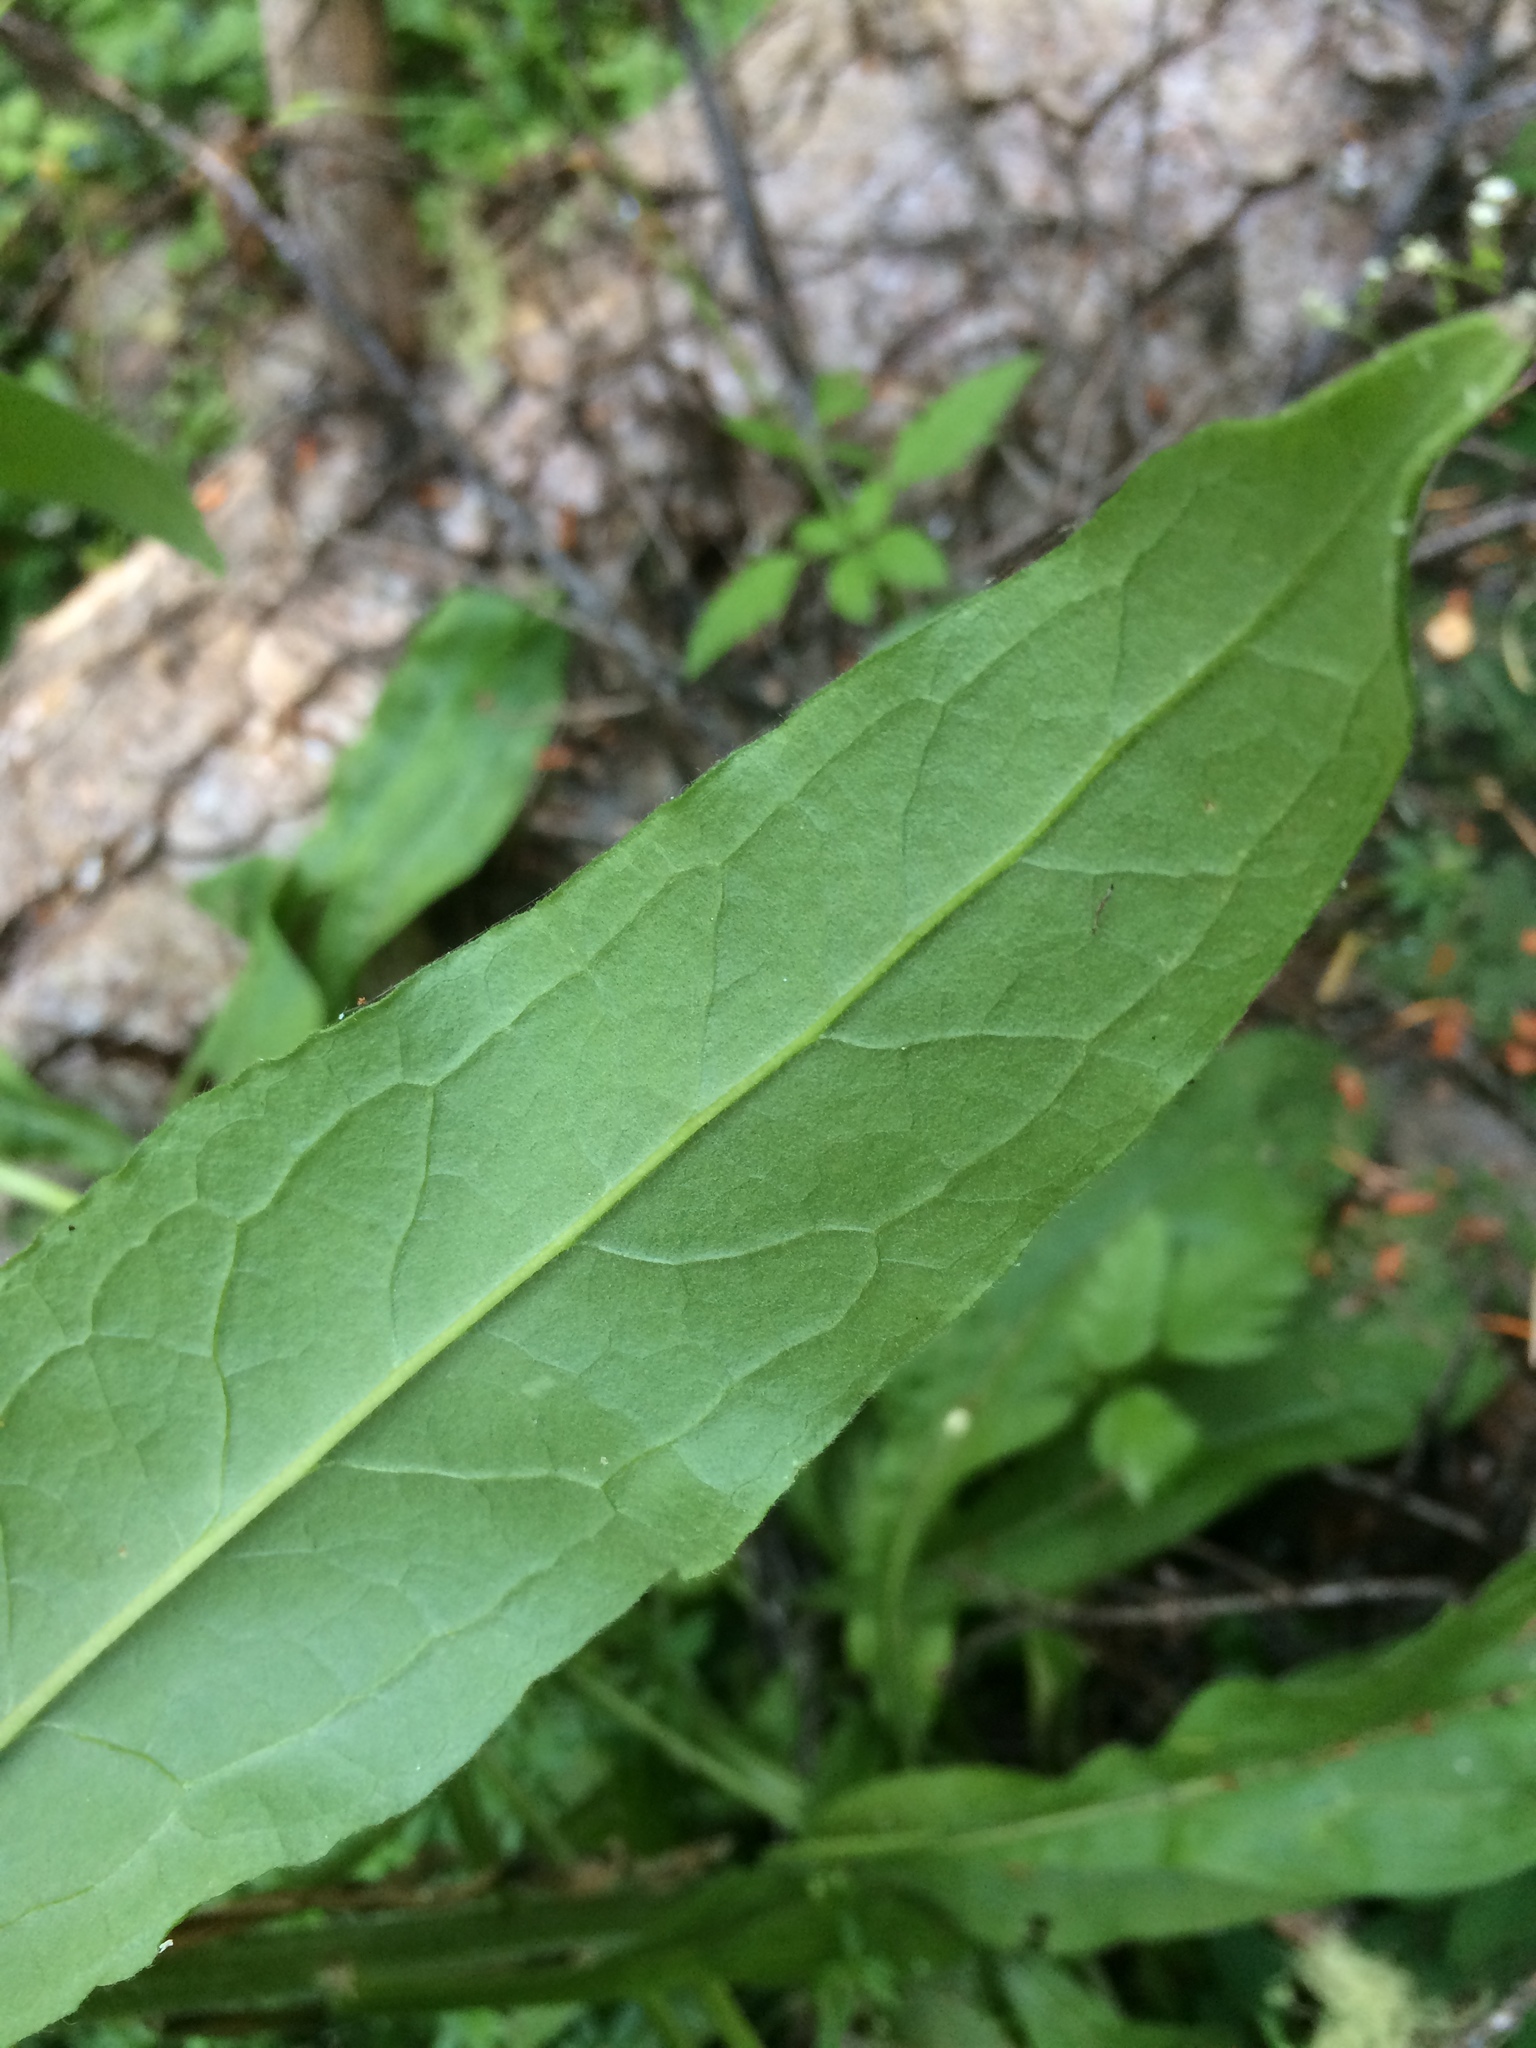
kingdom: Plantae
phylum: Tracheophyta
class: Magnoliopsida
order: Boraginales
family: Boraginaceae
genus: Cynoglossum
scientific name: Cynoglossum officinale
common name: Hound's-tongue
